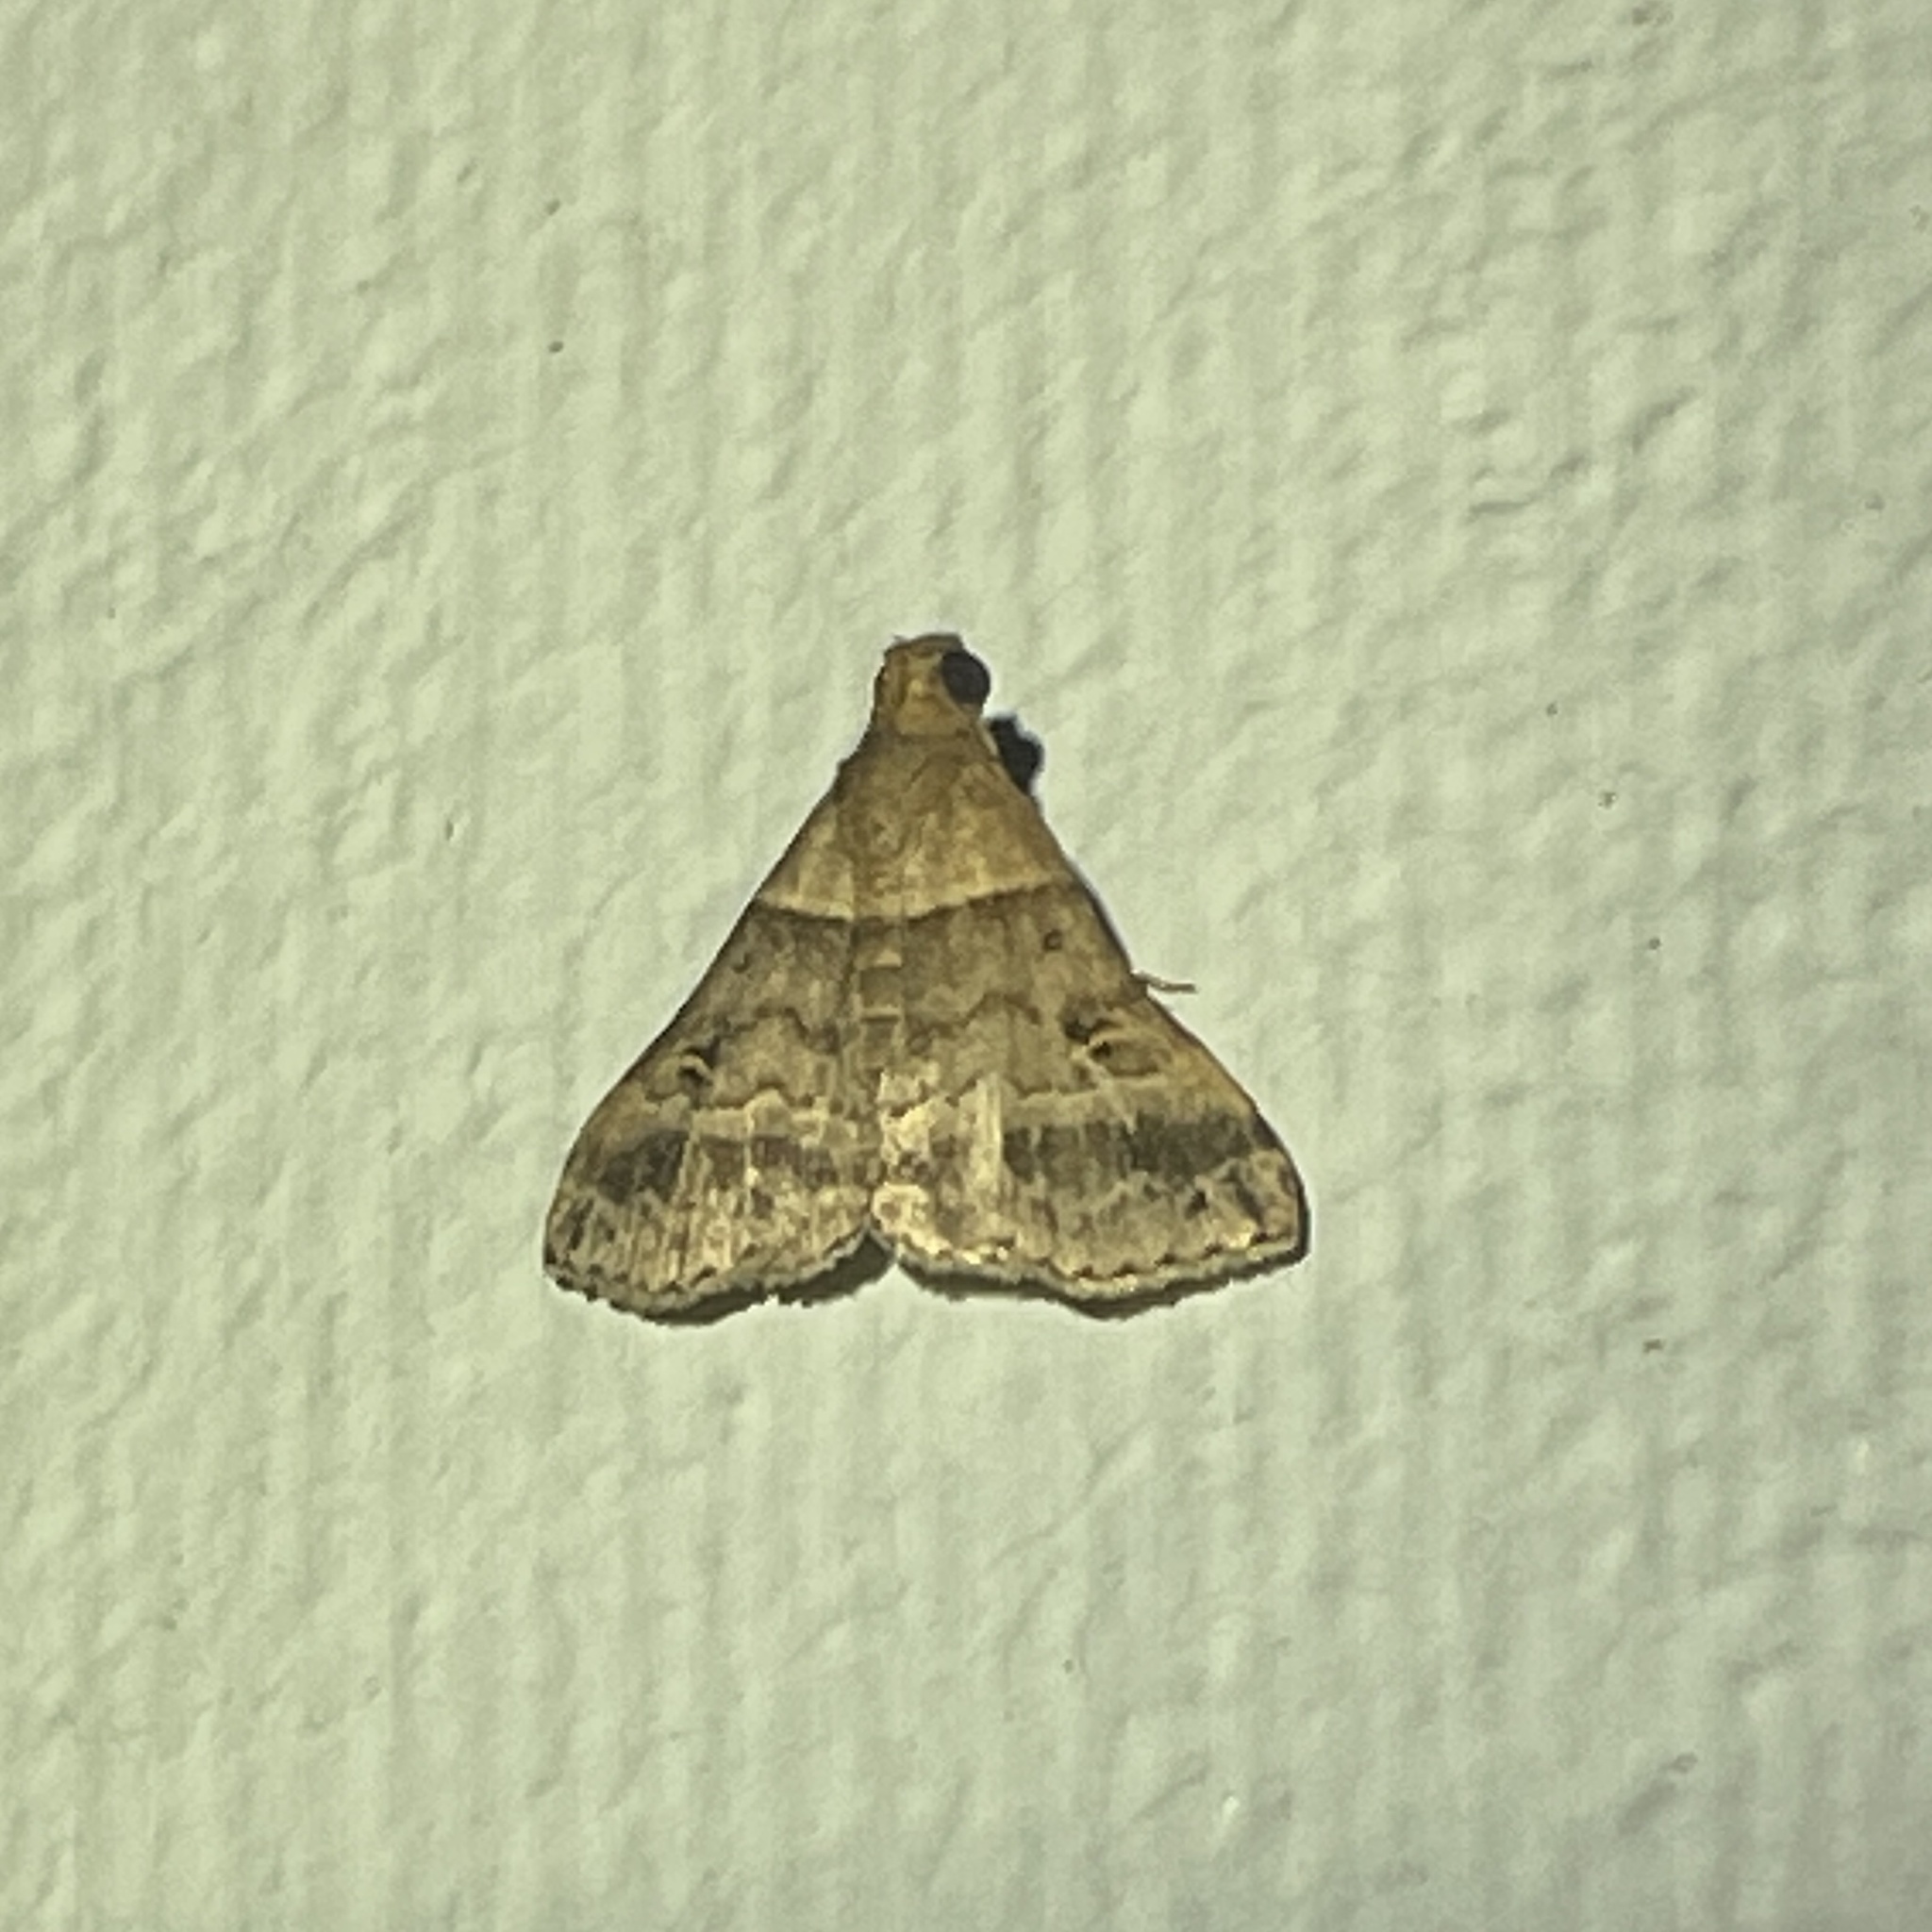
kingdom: Animalia
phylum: Arthropoda
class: Insecta
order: Lepidoptera
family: Erebidae
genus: Heterogramma
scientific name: Heterogramma circumflexalis
